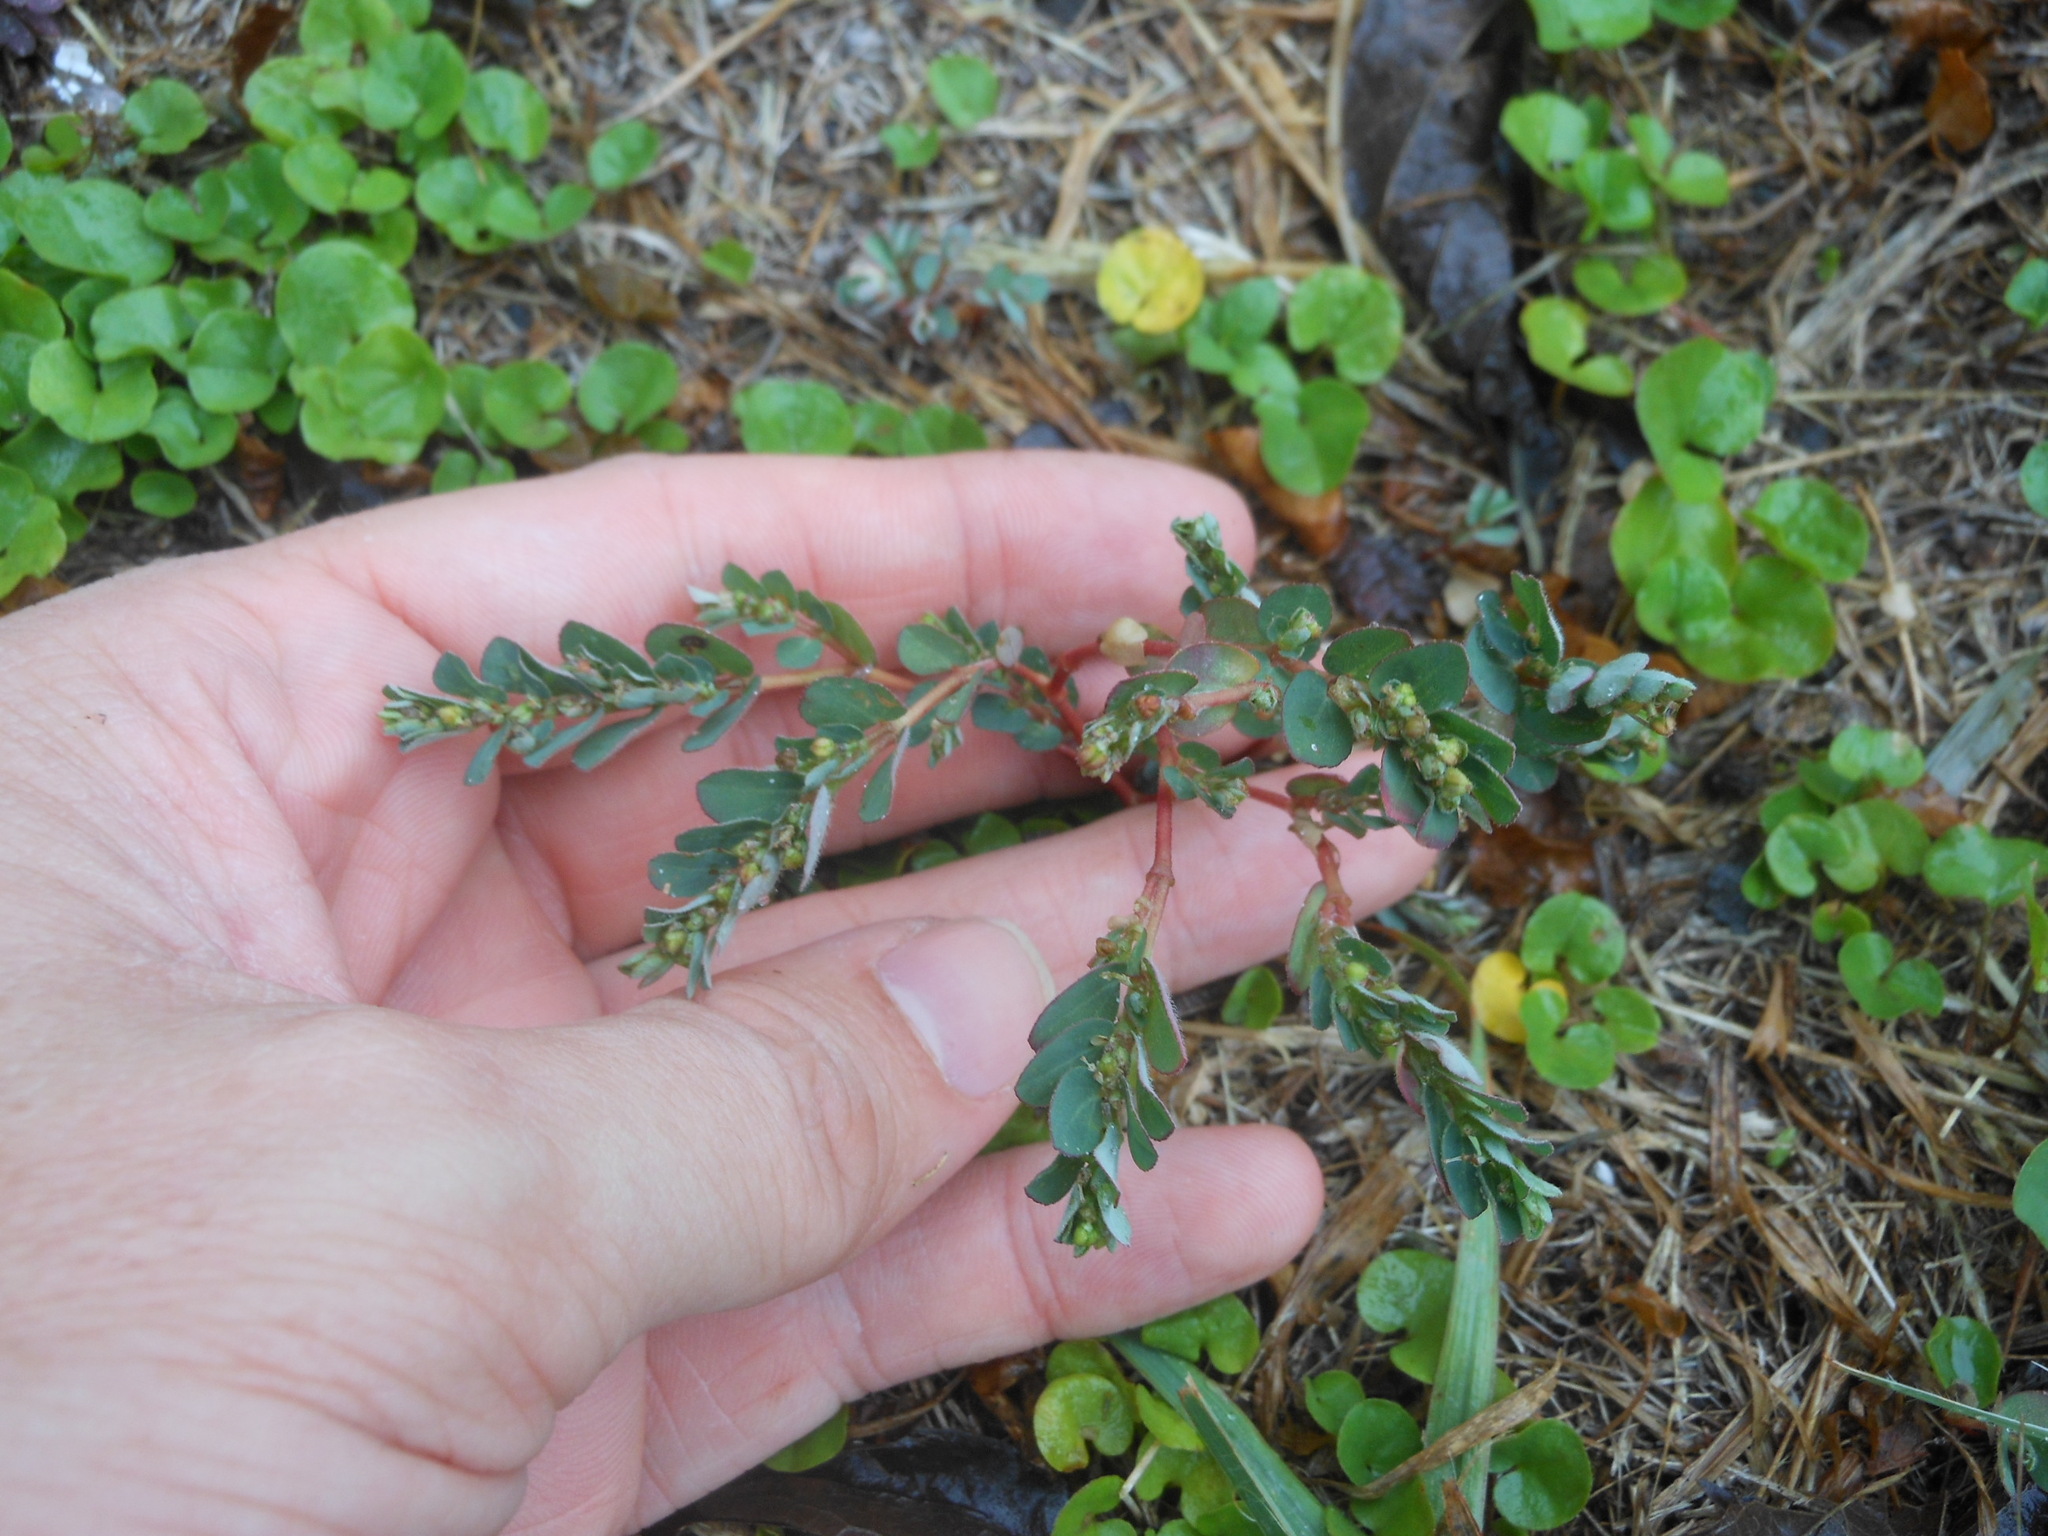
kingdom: Plantae
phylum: Tracheophyta
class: Magnoliopsida
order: Malpighiales
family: Euphorbiaceae
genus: Euphorbia
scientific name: Euphorbia prostrata
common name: Prostrate sandmat
